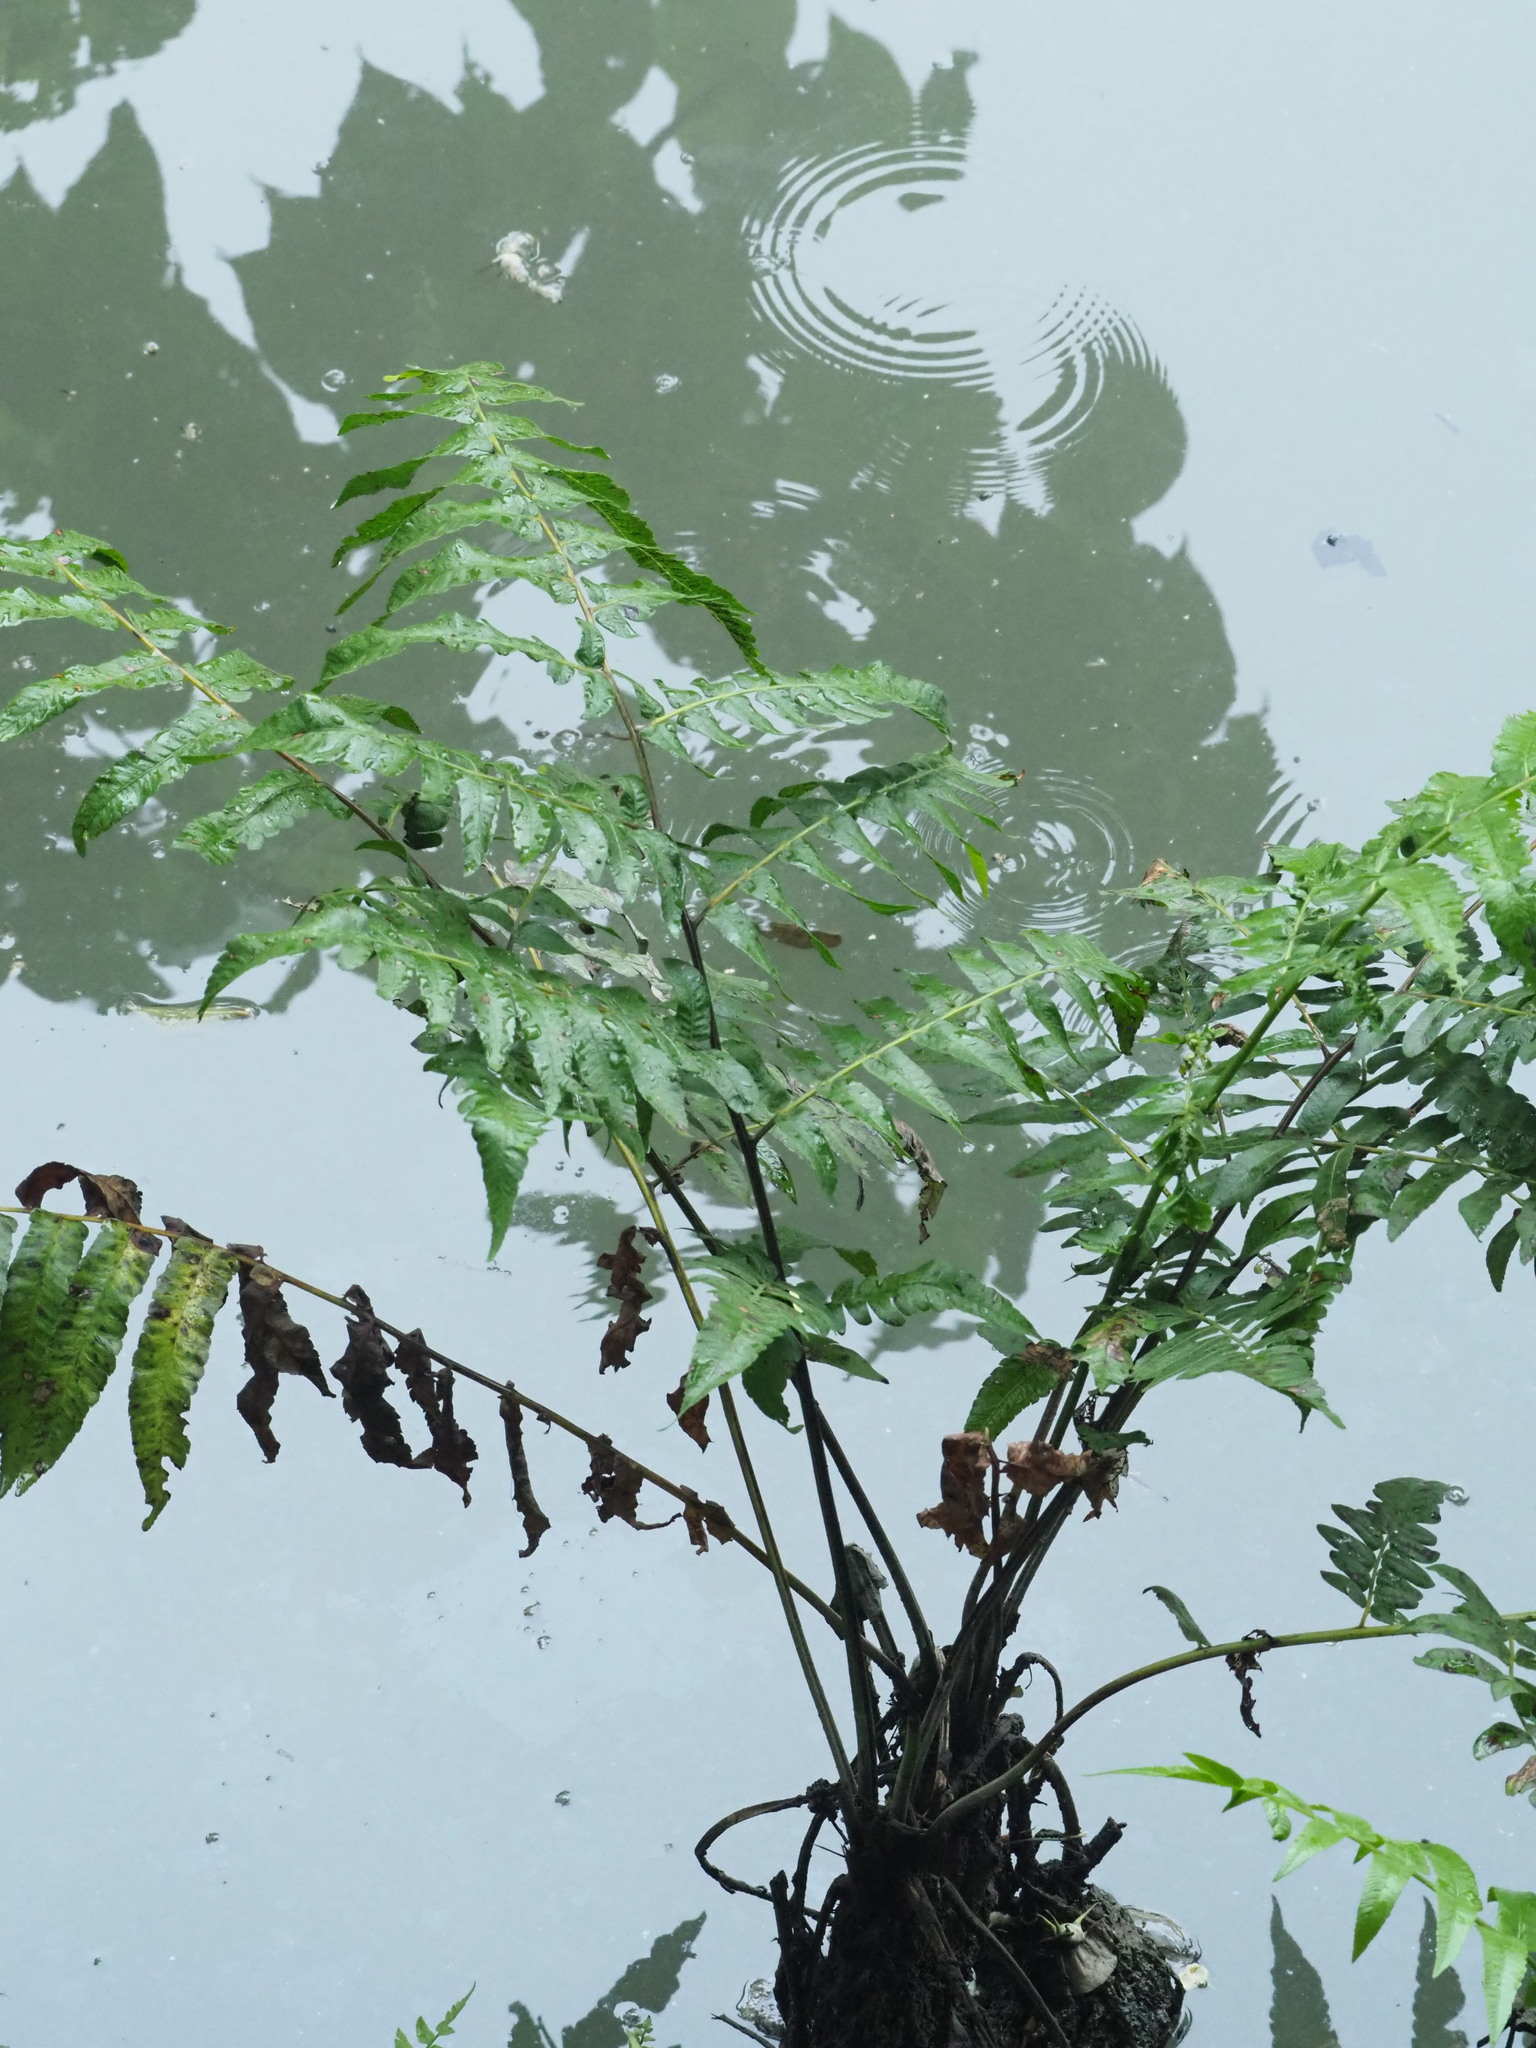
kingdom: Plantae
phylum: Tracheophyta
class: Polypodiopsida
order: Polypodiales
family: Athyriaceae
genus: Diplazium
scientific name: Diplazium esculentum
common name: Vegetable fern
